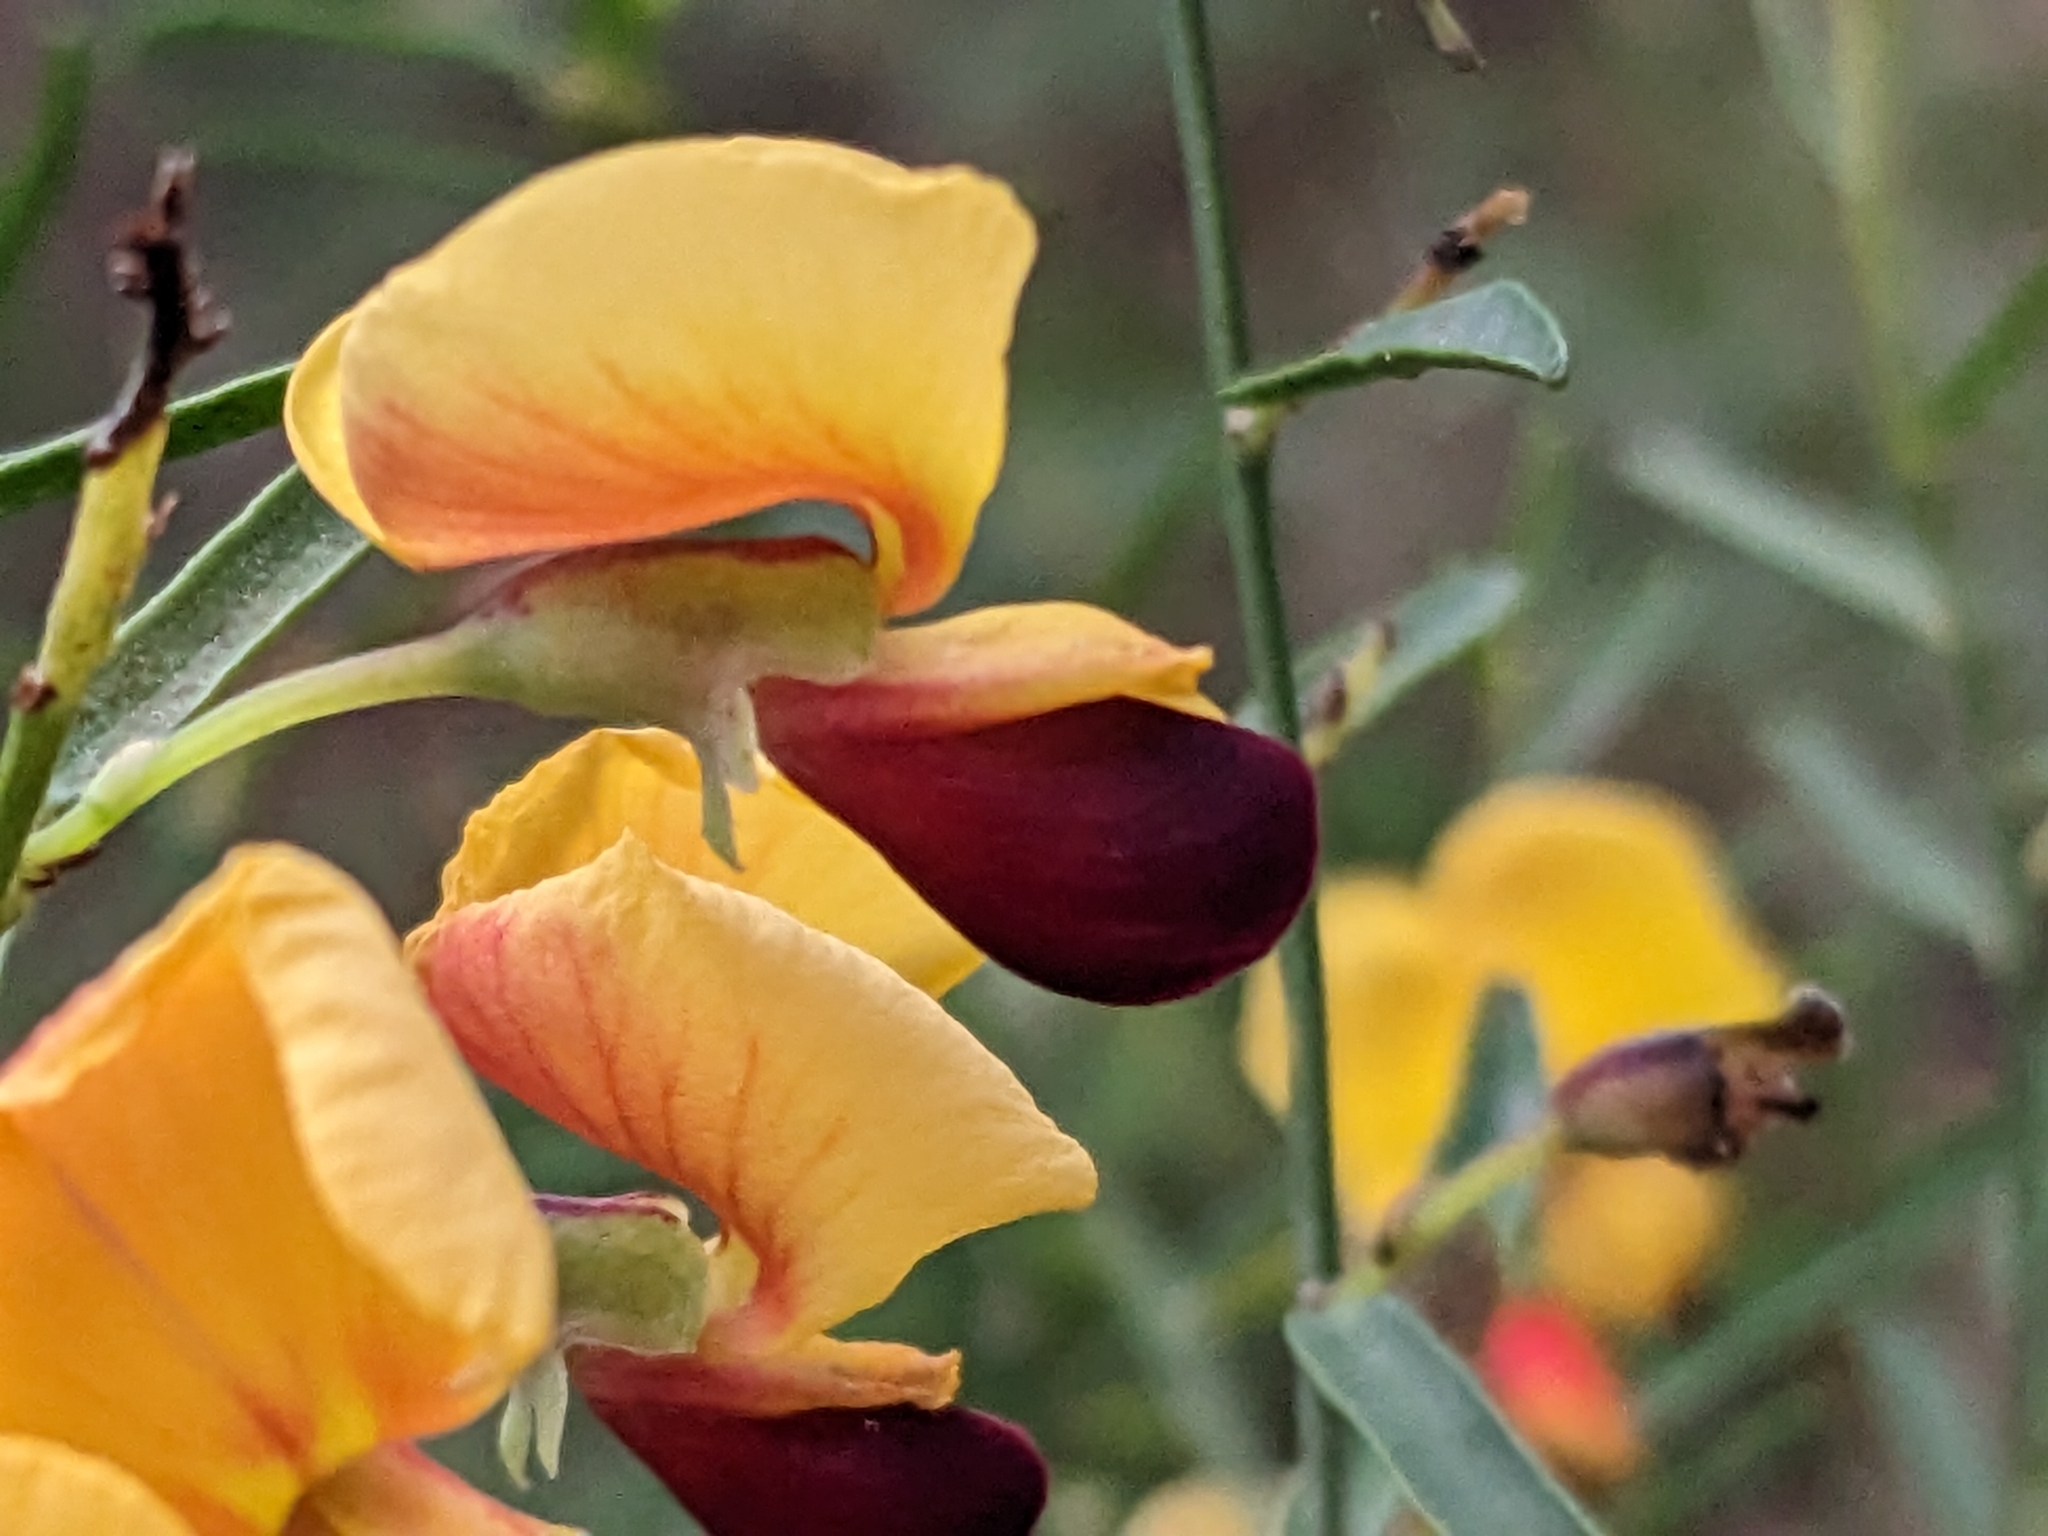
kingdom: Plantae
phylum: Tracheophyta
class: Magnoliopsida
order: Fabales
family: Fabaceae
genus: Bossiaea
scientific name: Bossiaea heterophylla
